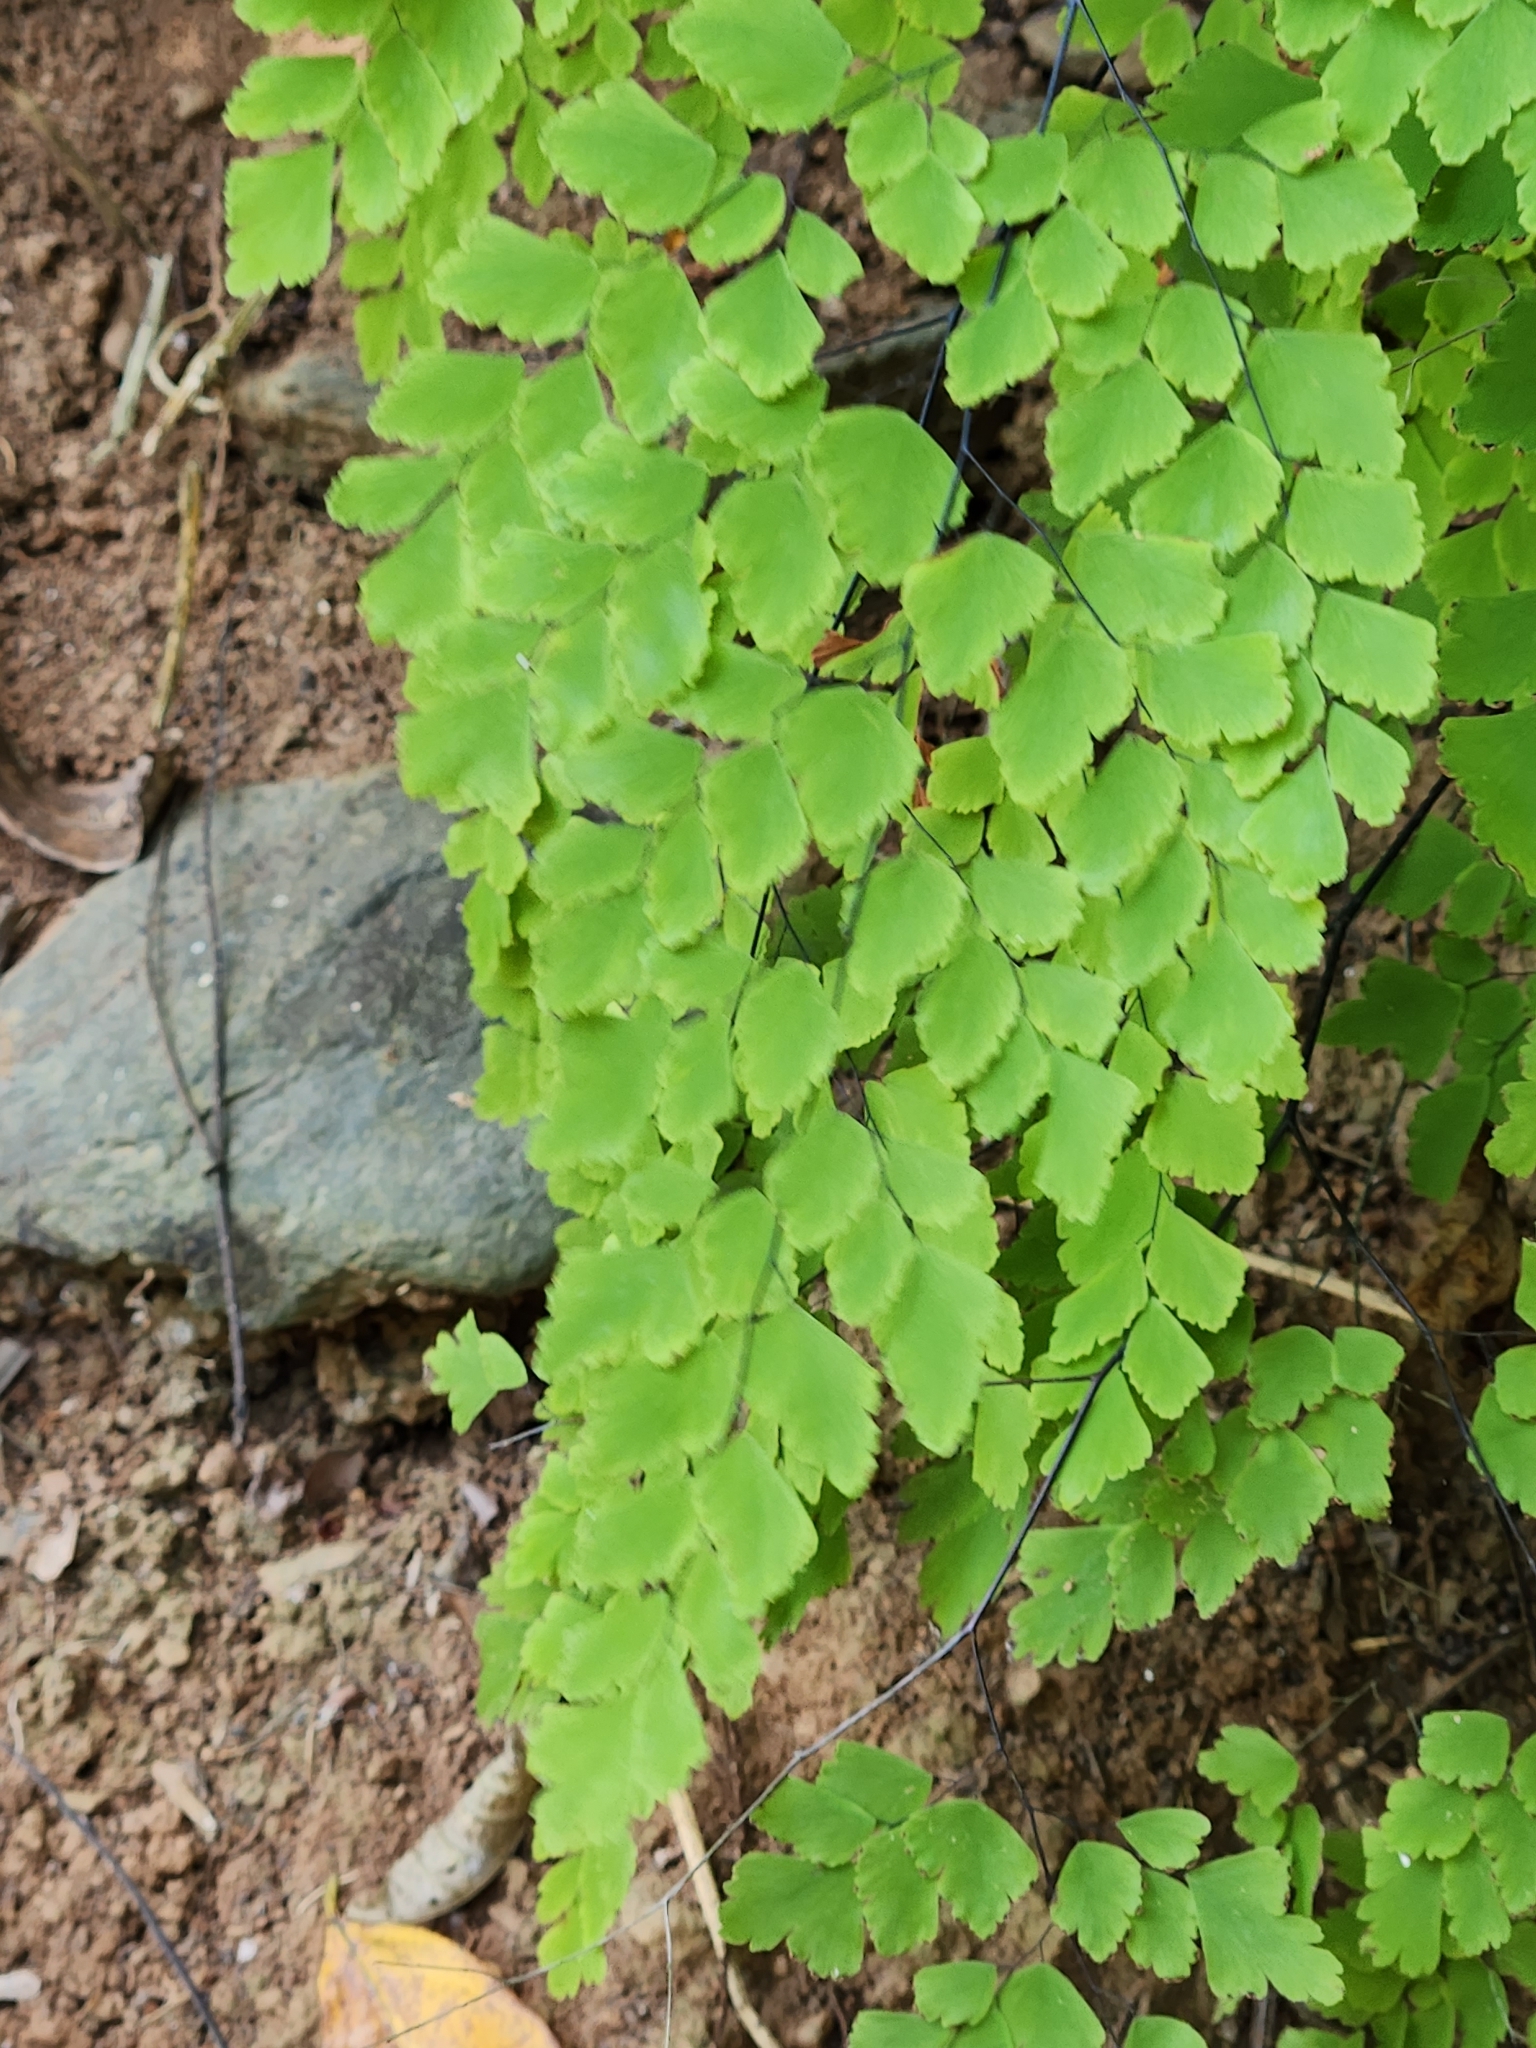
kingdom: Plantae
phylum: Tracheophyta
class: Polypodiopsida
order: Polypodiales
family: Pteridaceae
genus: Adiantum
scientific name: Adiantum tenerum
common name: Fan maidenhair
